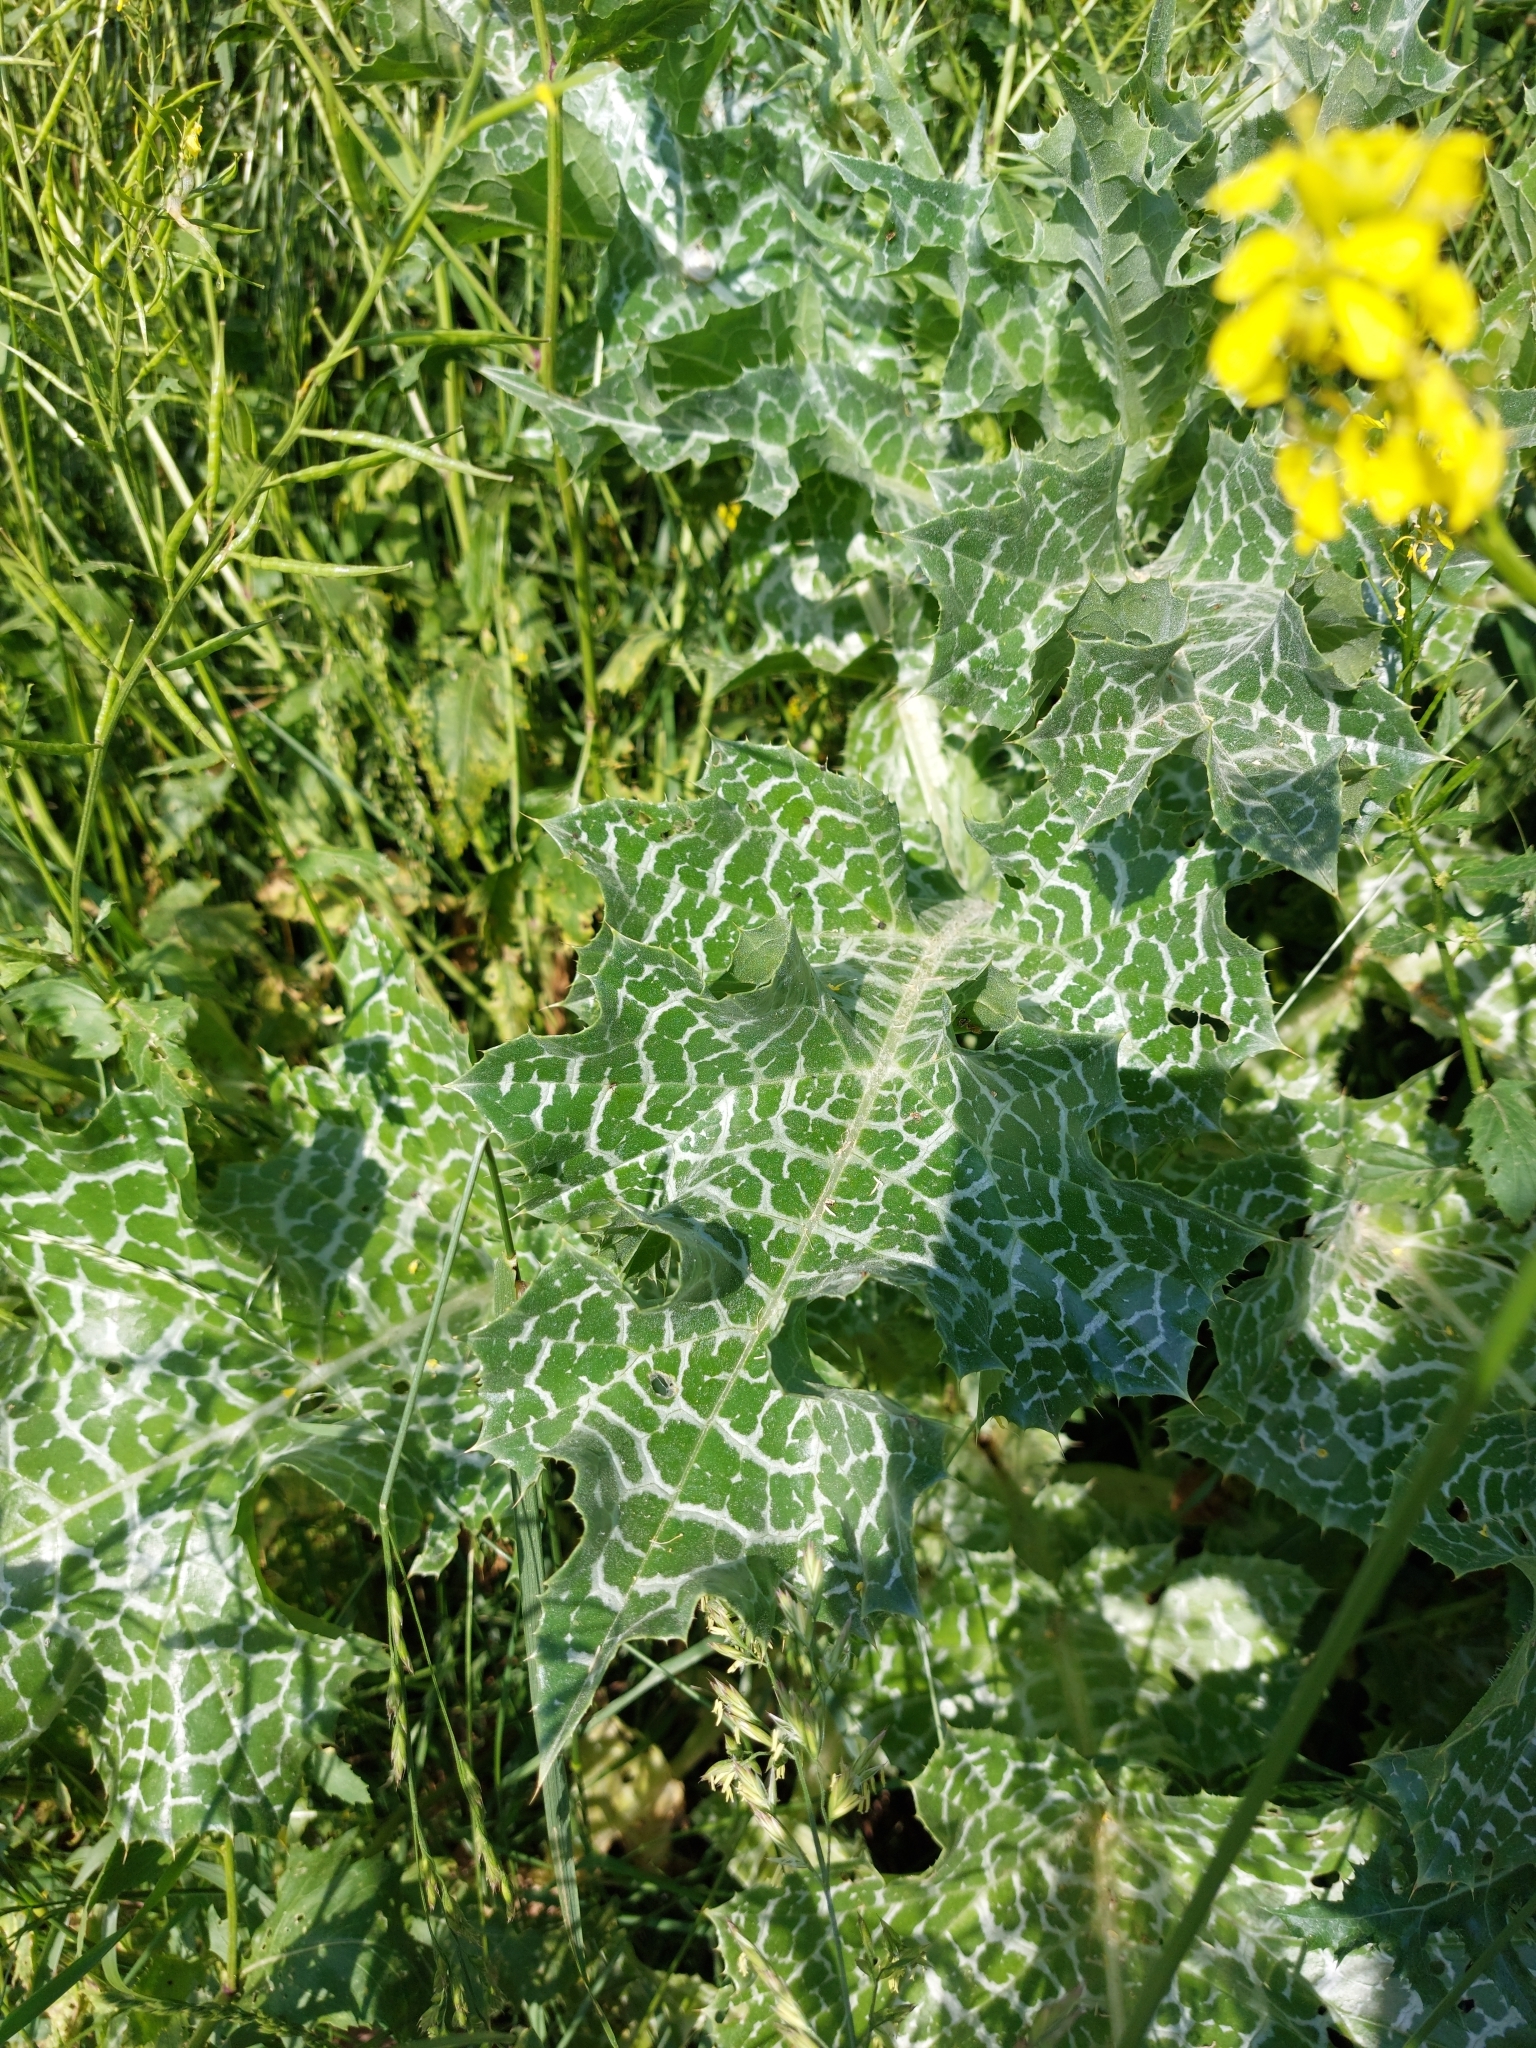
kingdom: Plantae
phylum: Tracheophyta
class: Magnoliopsida
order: Asterales
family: Asteraceae
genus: Silybum
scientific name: Silybum marianum
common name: Milk thistle
